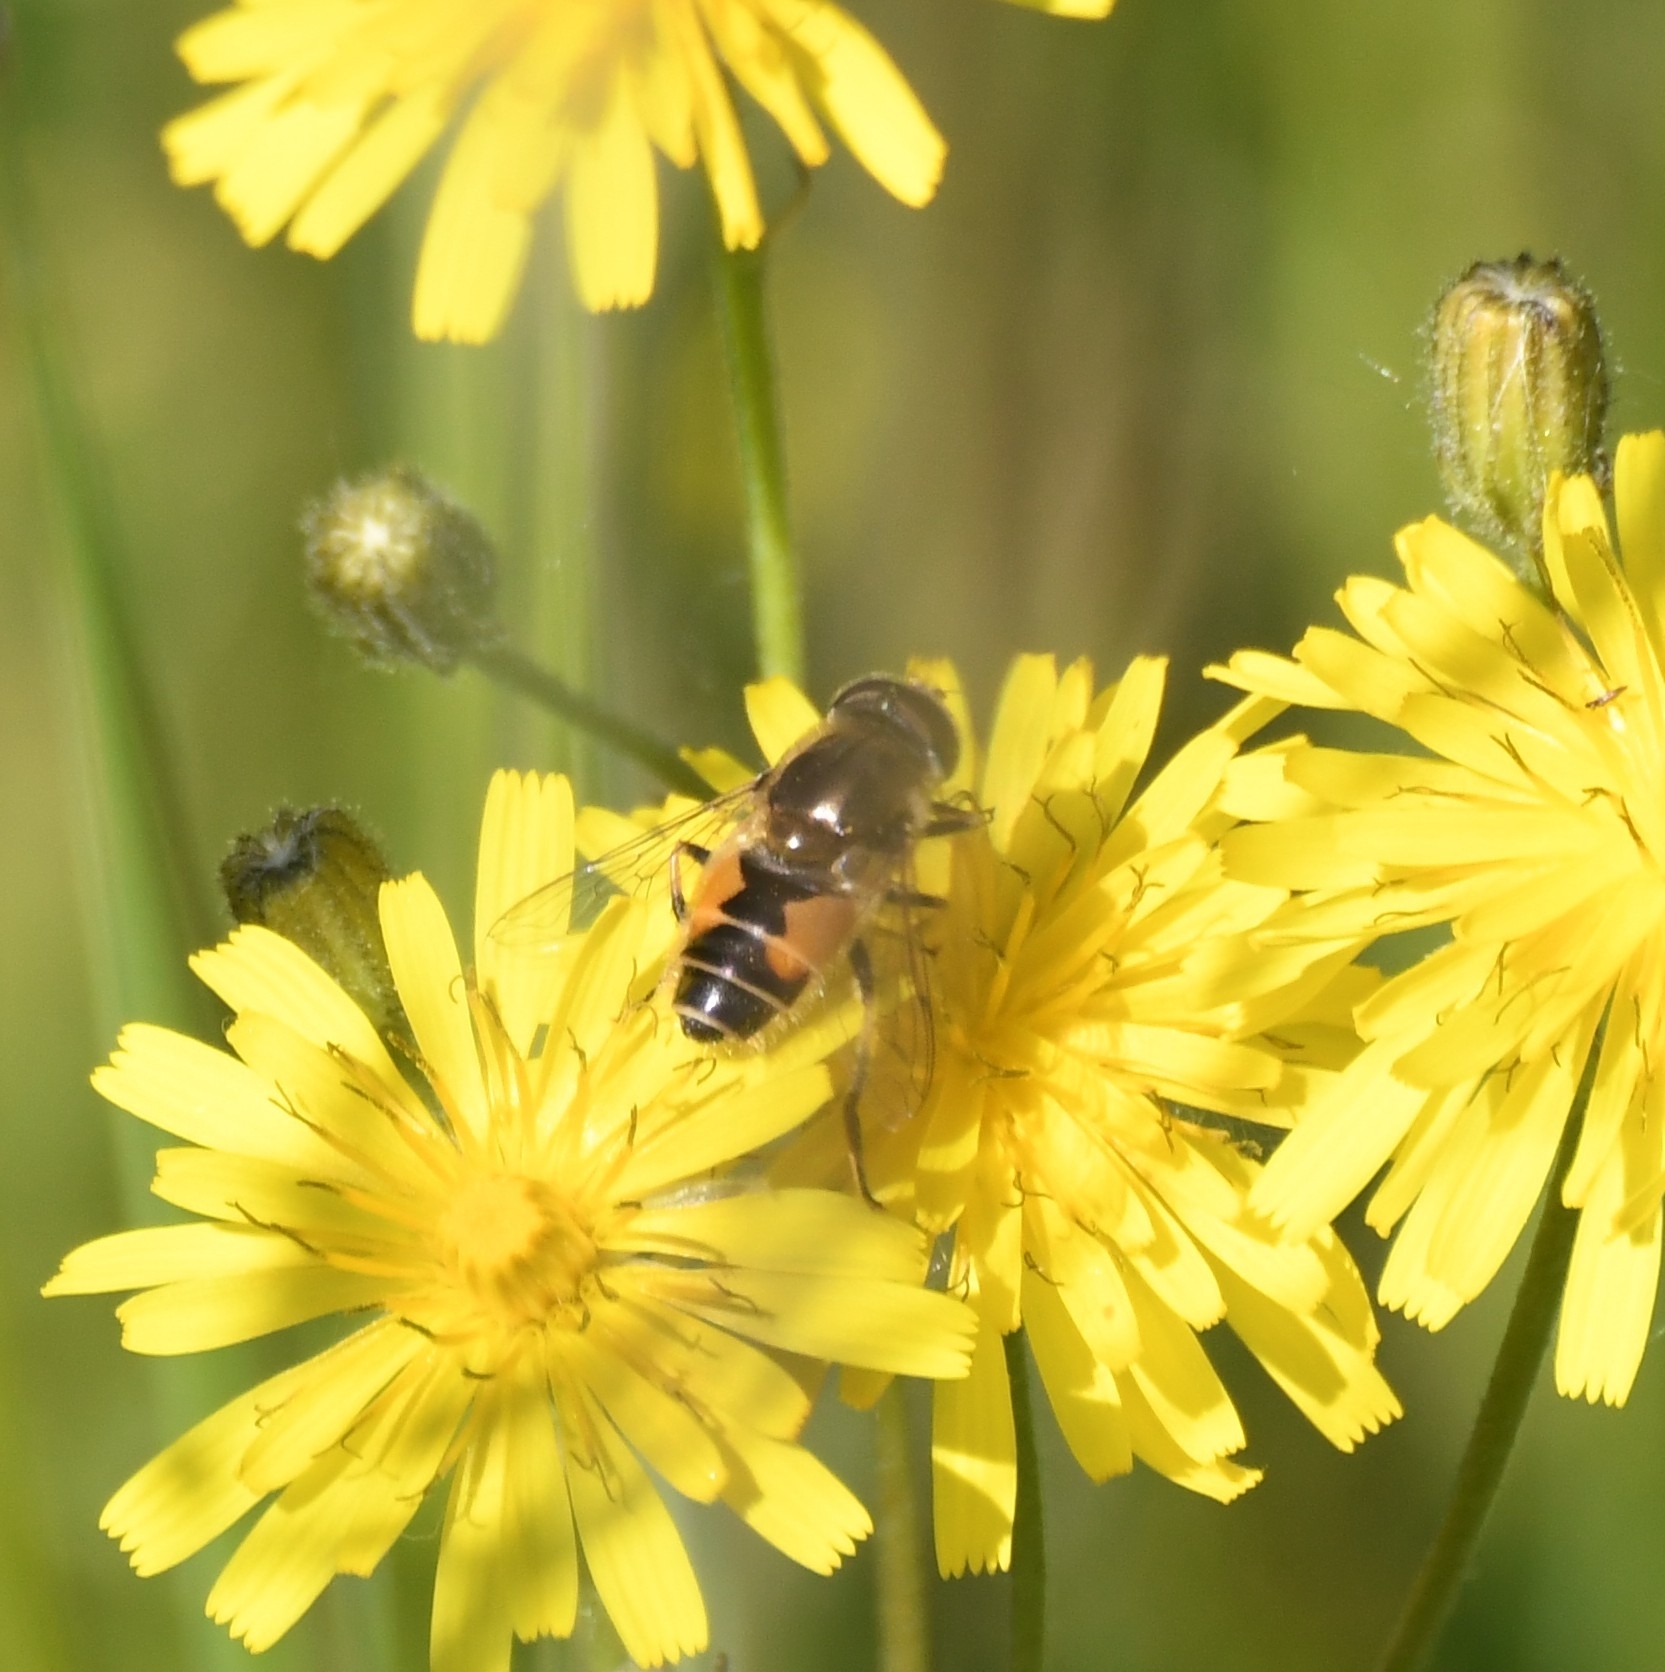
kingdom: Animalia
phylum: Arthropoda
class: Insecta
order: Diptera
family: Syrphidae
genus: Eristalis
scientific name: Eristalis arbustorum
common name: Hover fly
